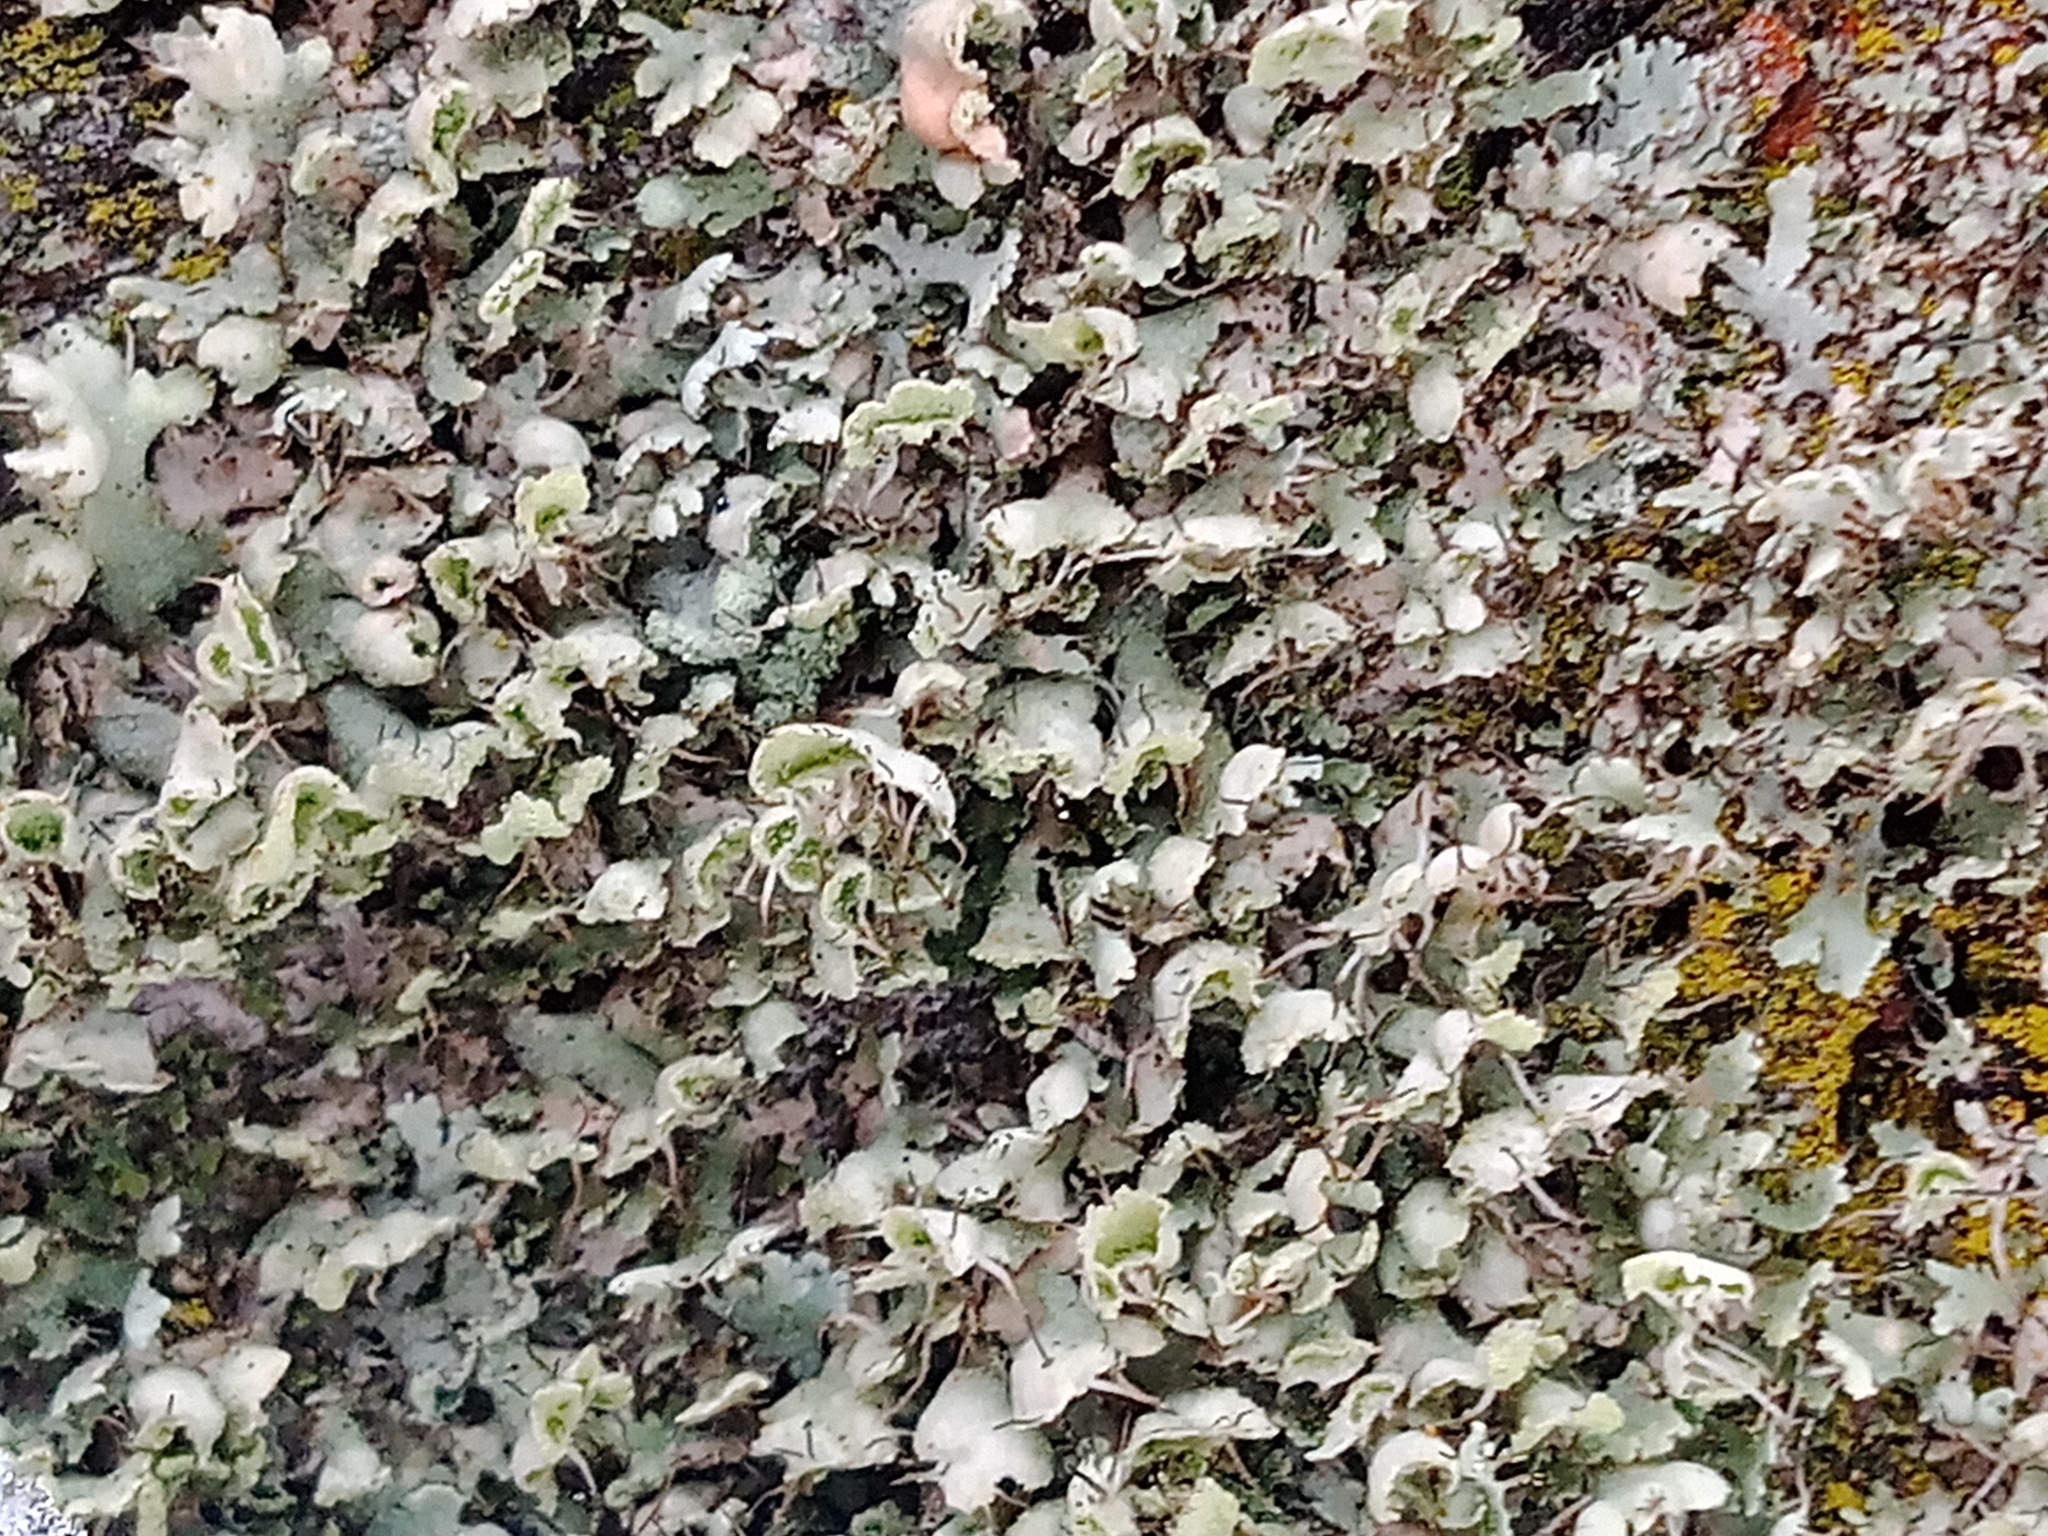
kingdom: Fungi
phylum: Ascomycota
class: Lecanoromycetes
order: Caliciales
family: Physciaceae
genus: Physcia
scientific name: Physcia adscendens
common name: Hooded rosette lichen
